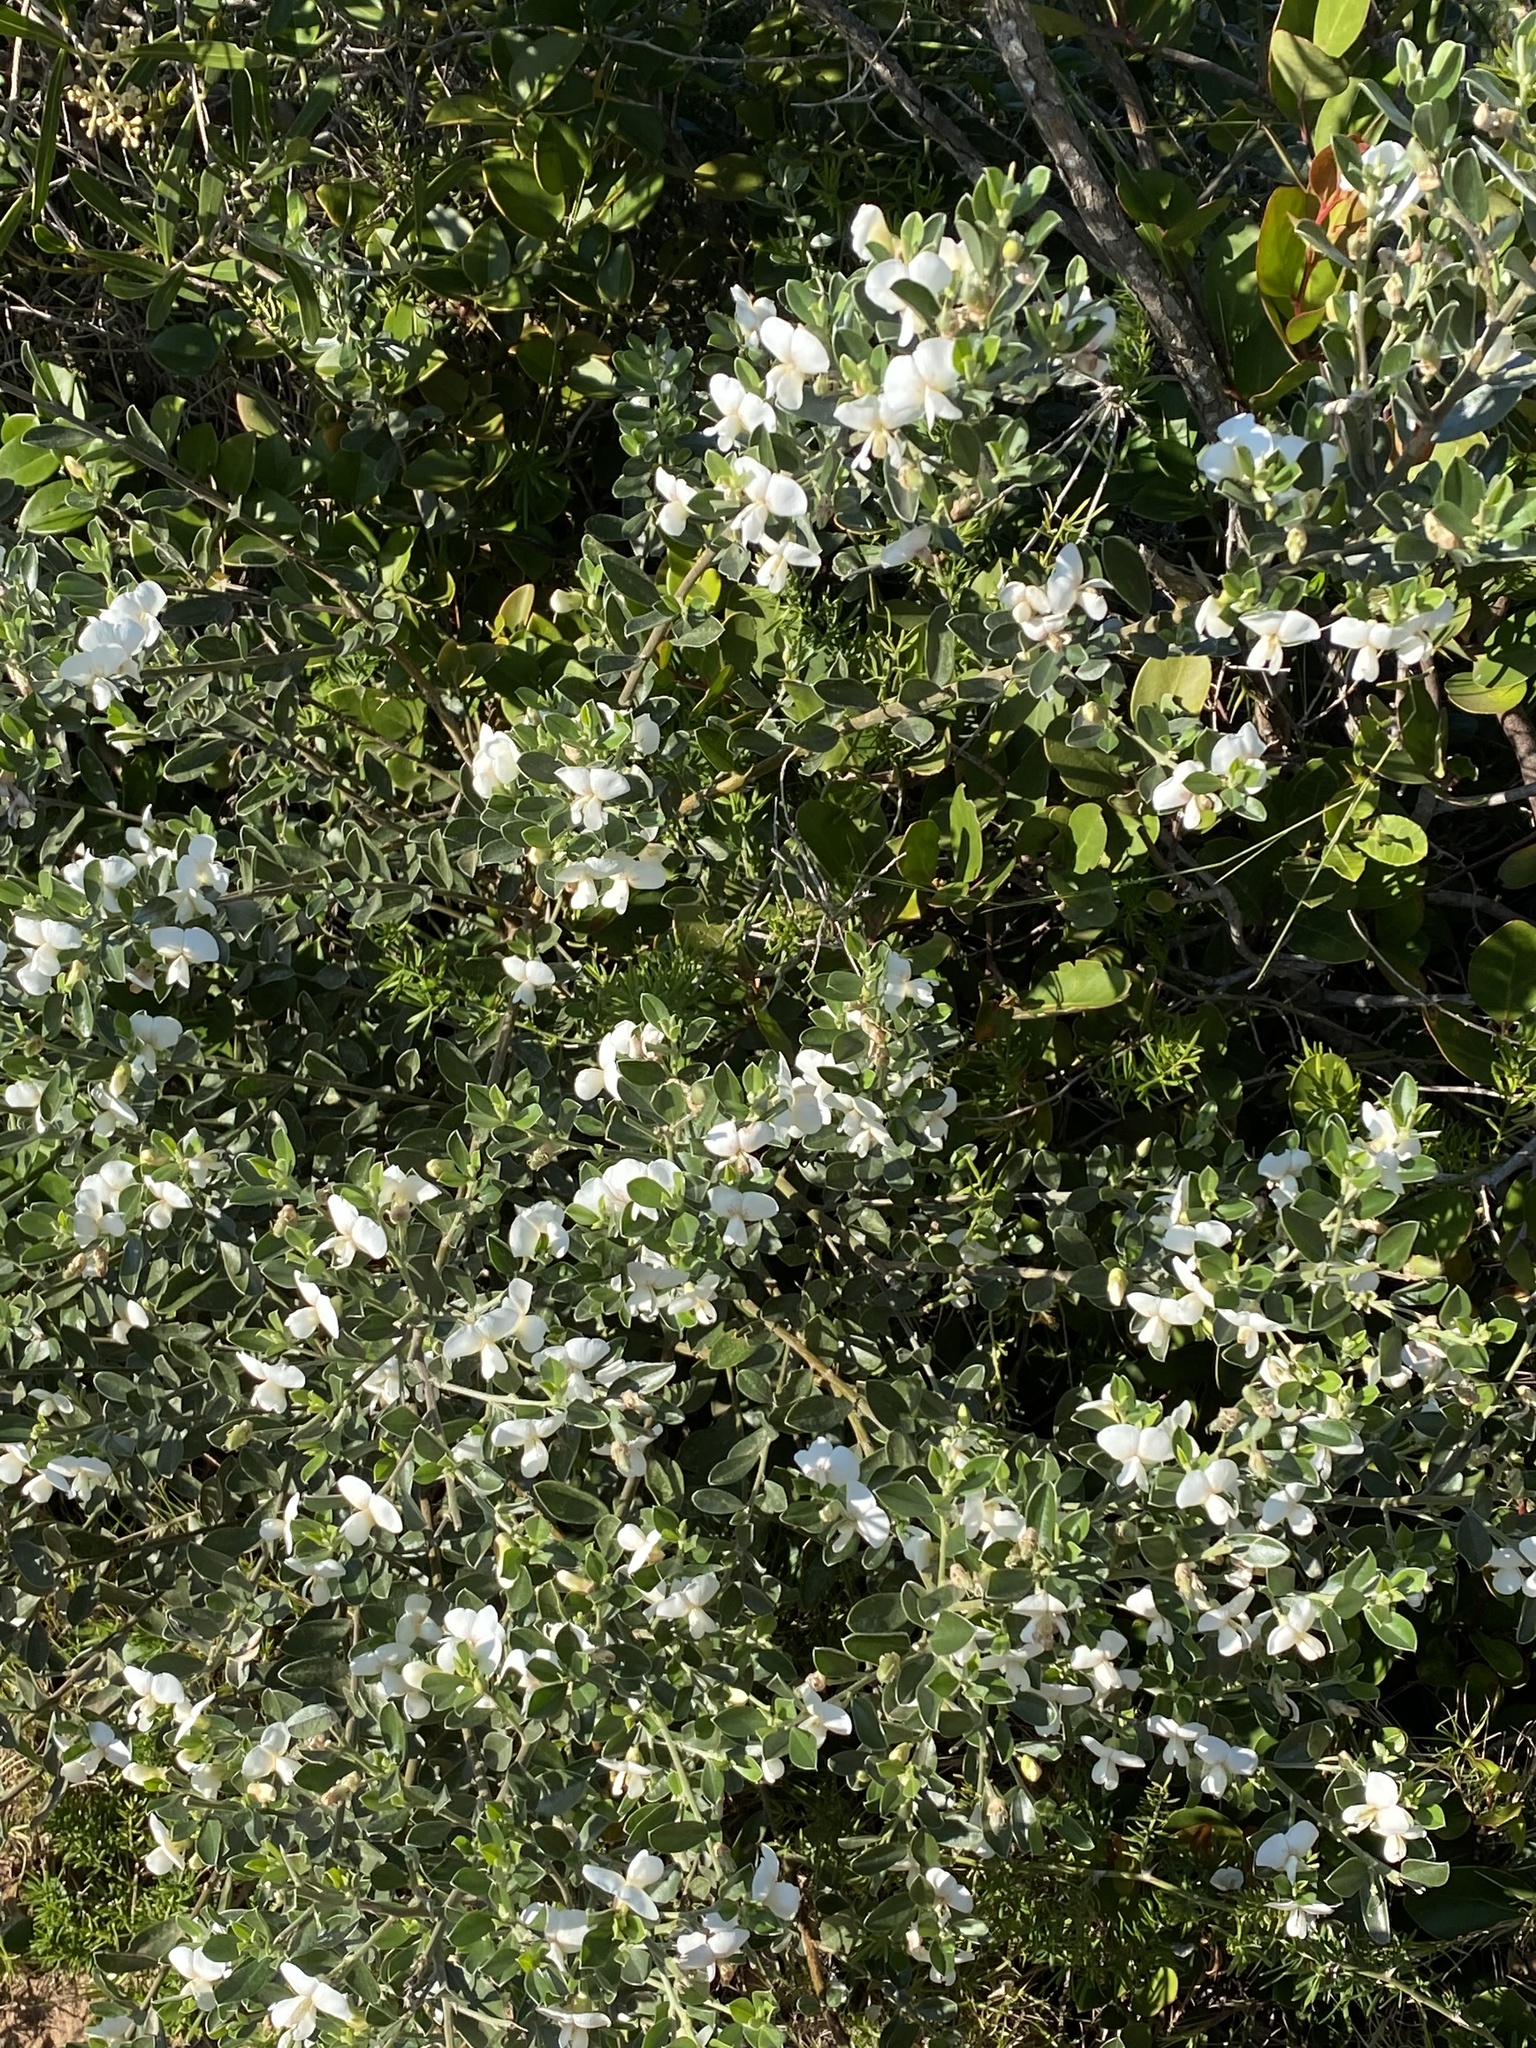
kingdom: Plantae
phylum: Tracheophyta
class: Magnoliopsida
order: Fabales
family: Fabaceae
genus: Podalyria
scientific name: Podalyria myrtillifolia
